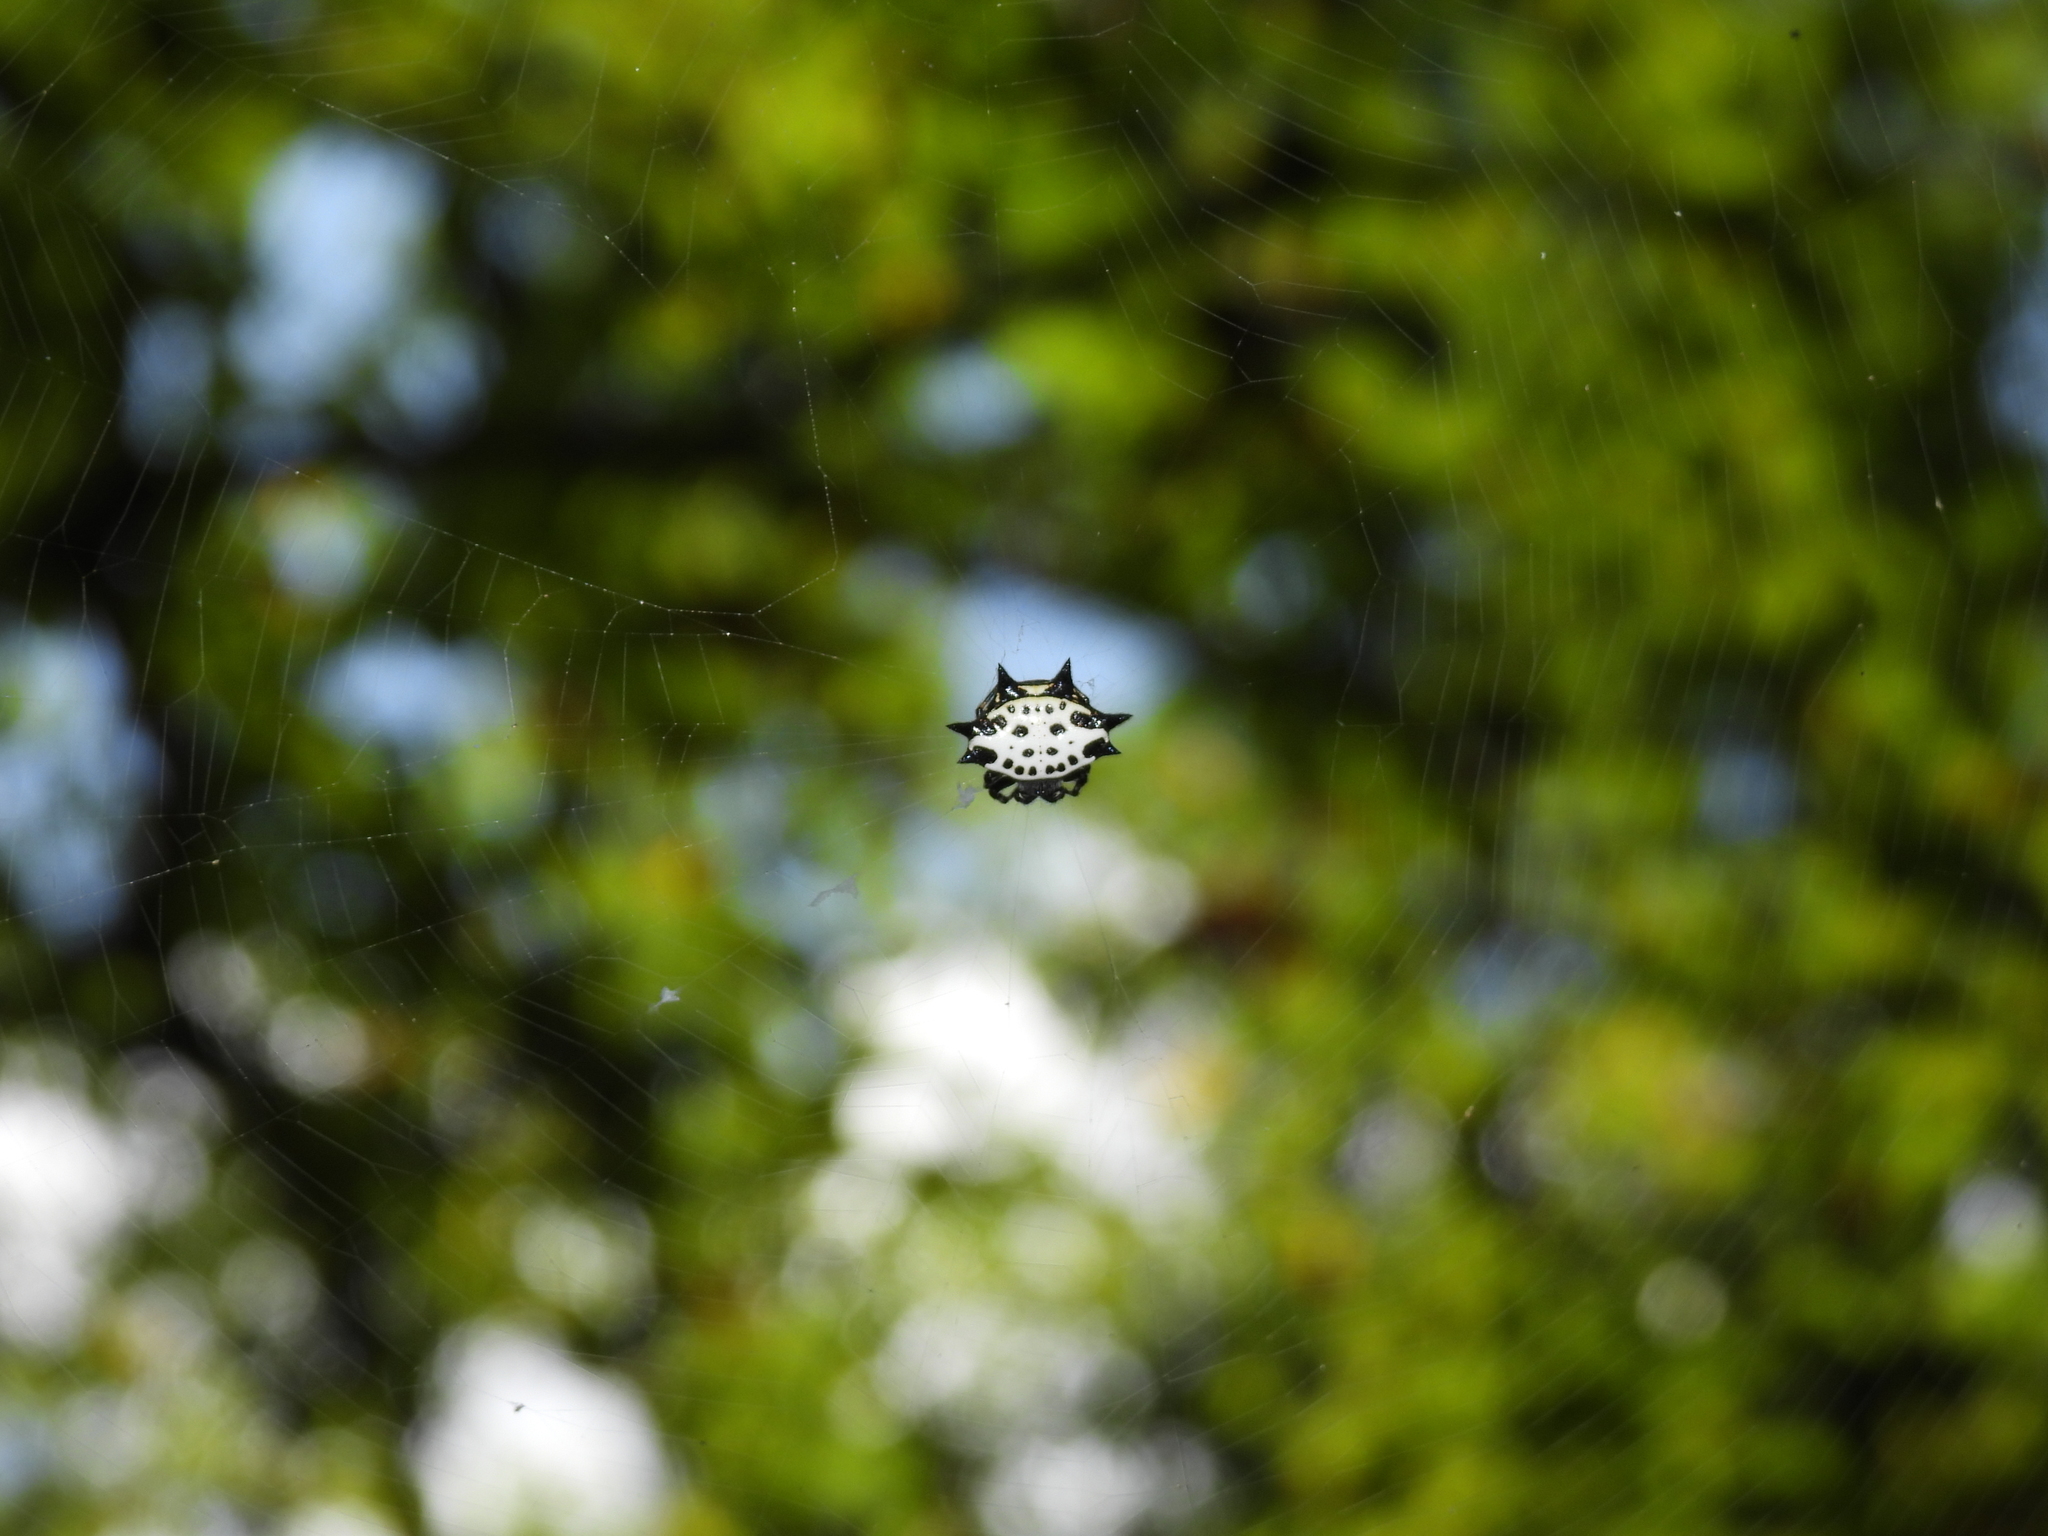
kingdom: Animalia
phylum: Arthropoda
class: Arachnida
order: Araneae
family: Araneidae
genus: Gasteracantha
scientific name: Gasteracantha cancriformis
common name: Orb weavers
